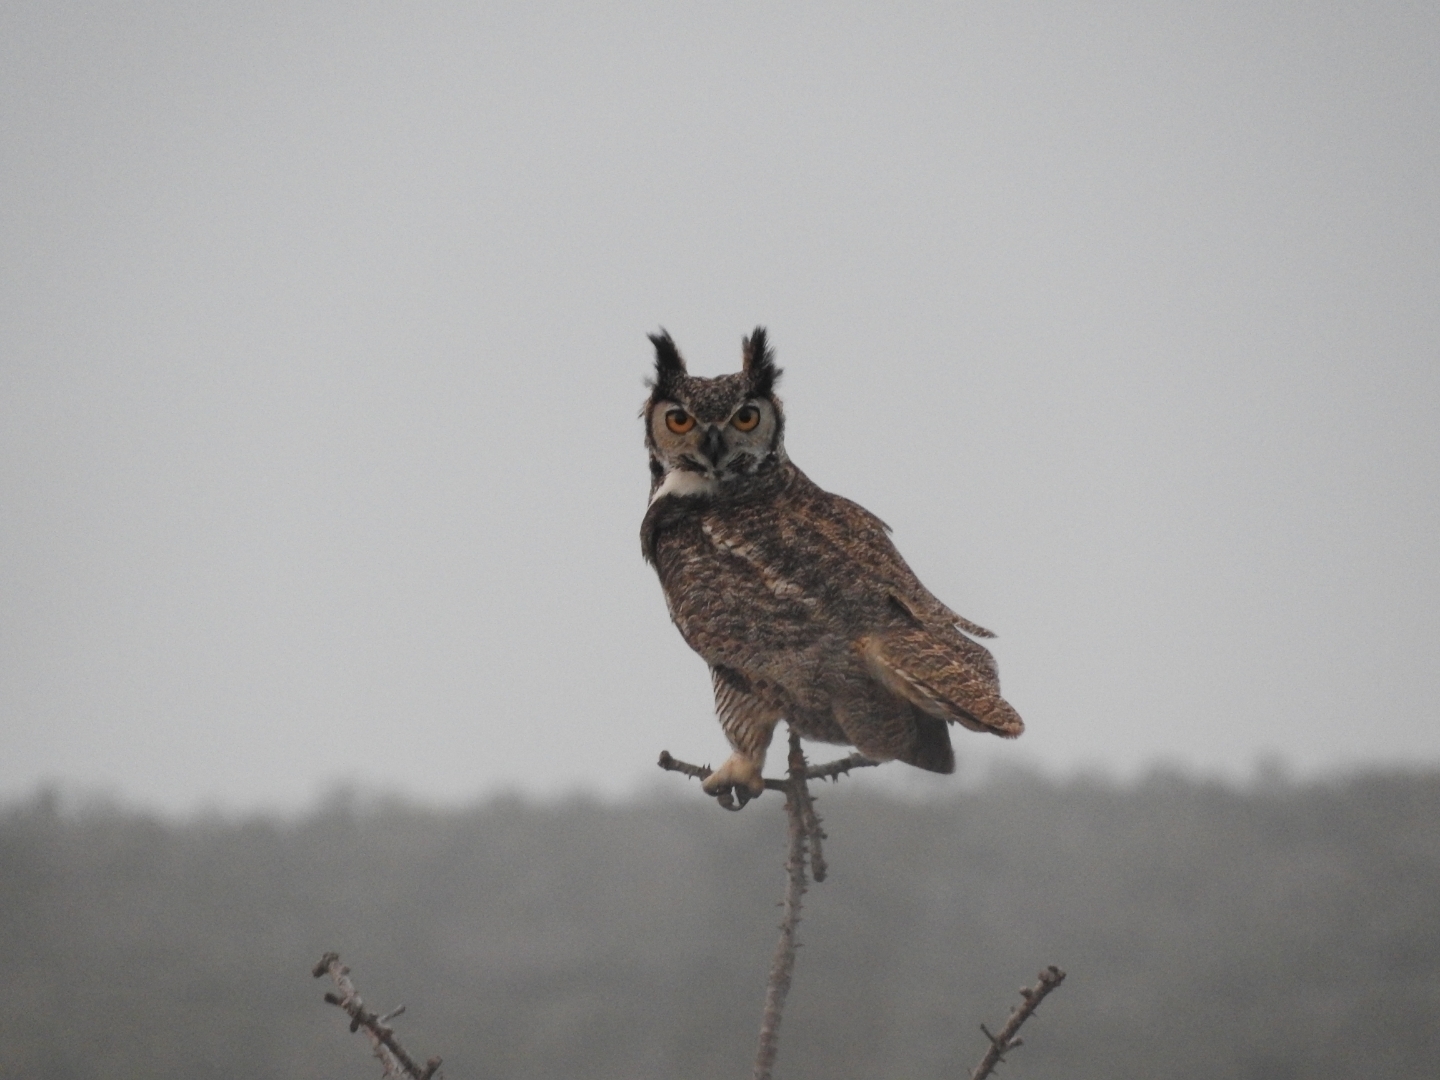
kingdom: Animalia
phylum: Chordata
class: Aves
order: Strigiformes
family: Strigidae
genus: Bubo
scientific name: Bubo virginianus
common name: Great horned owl
